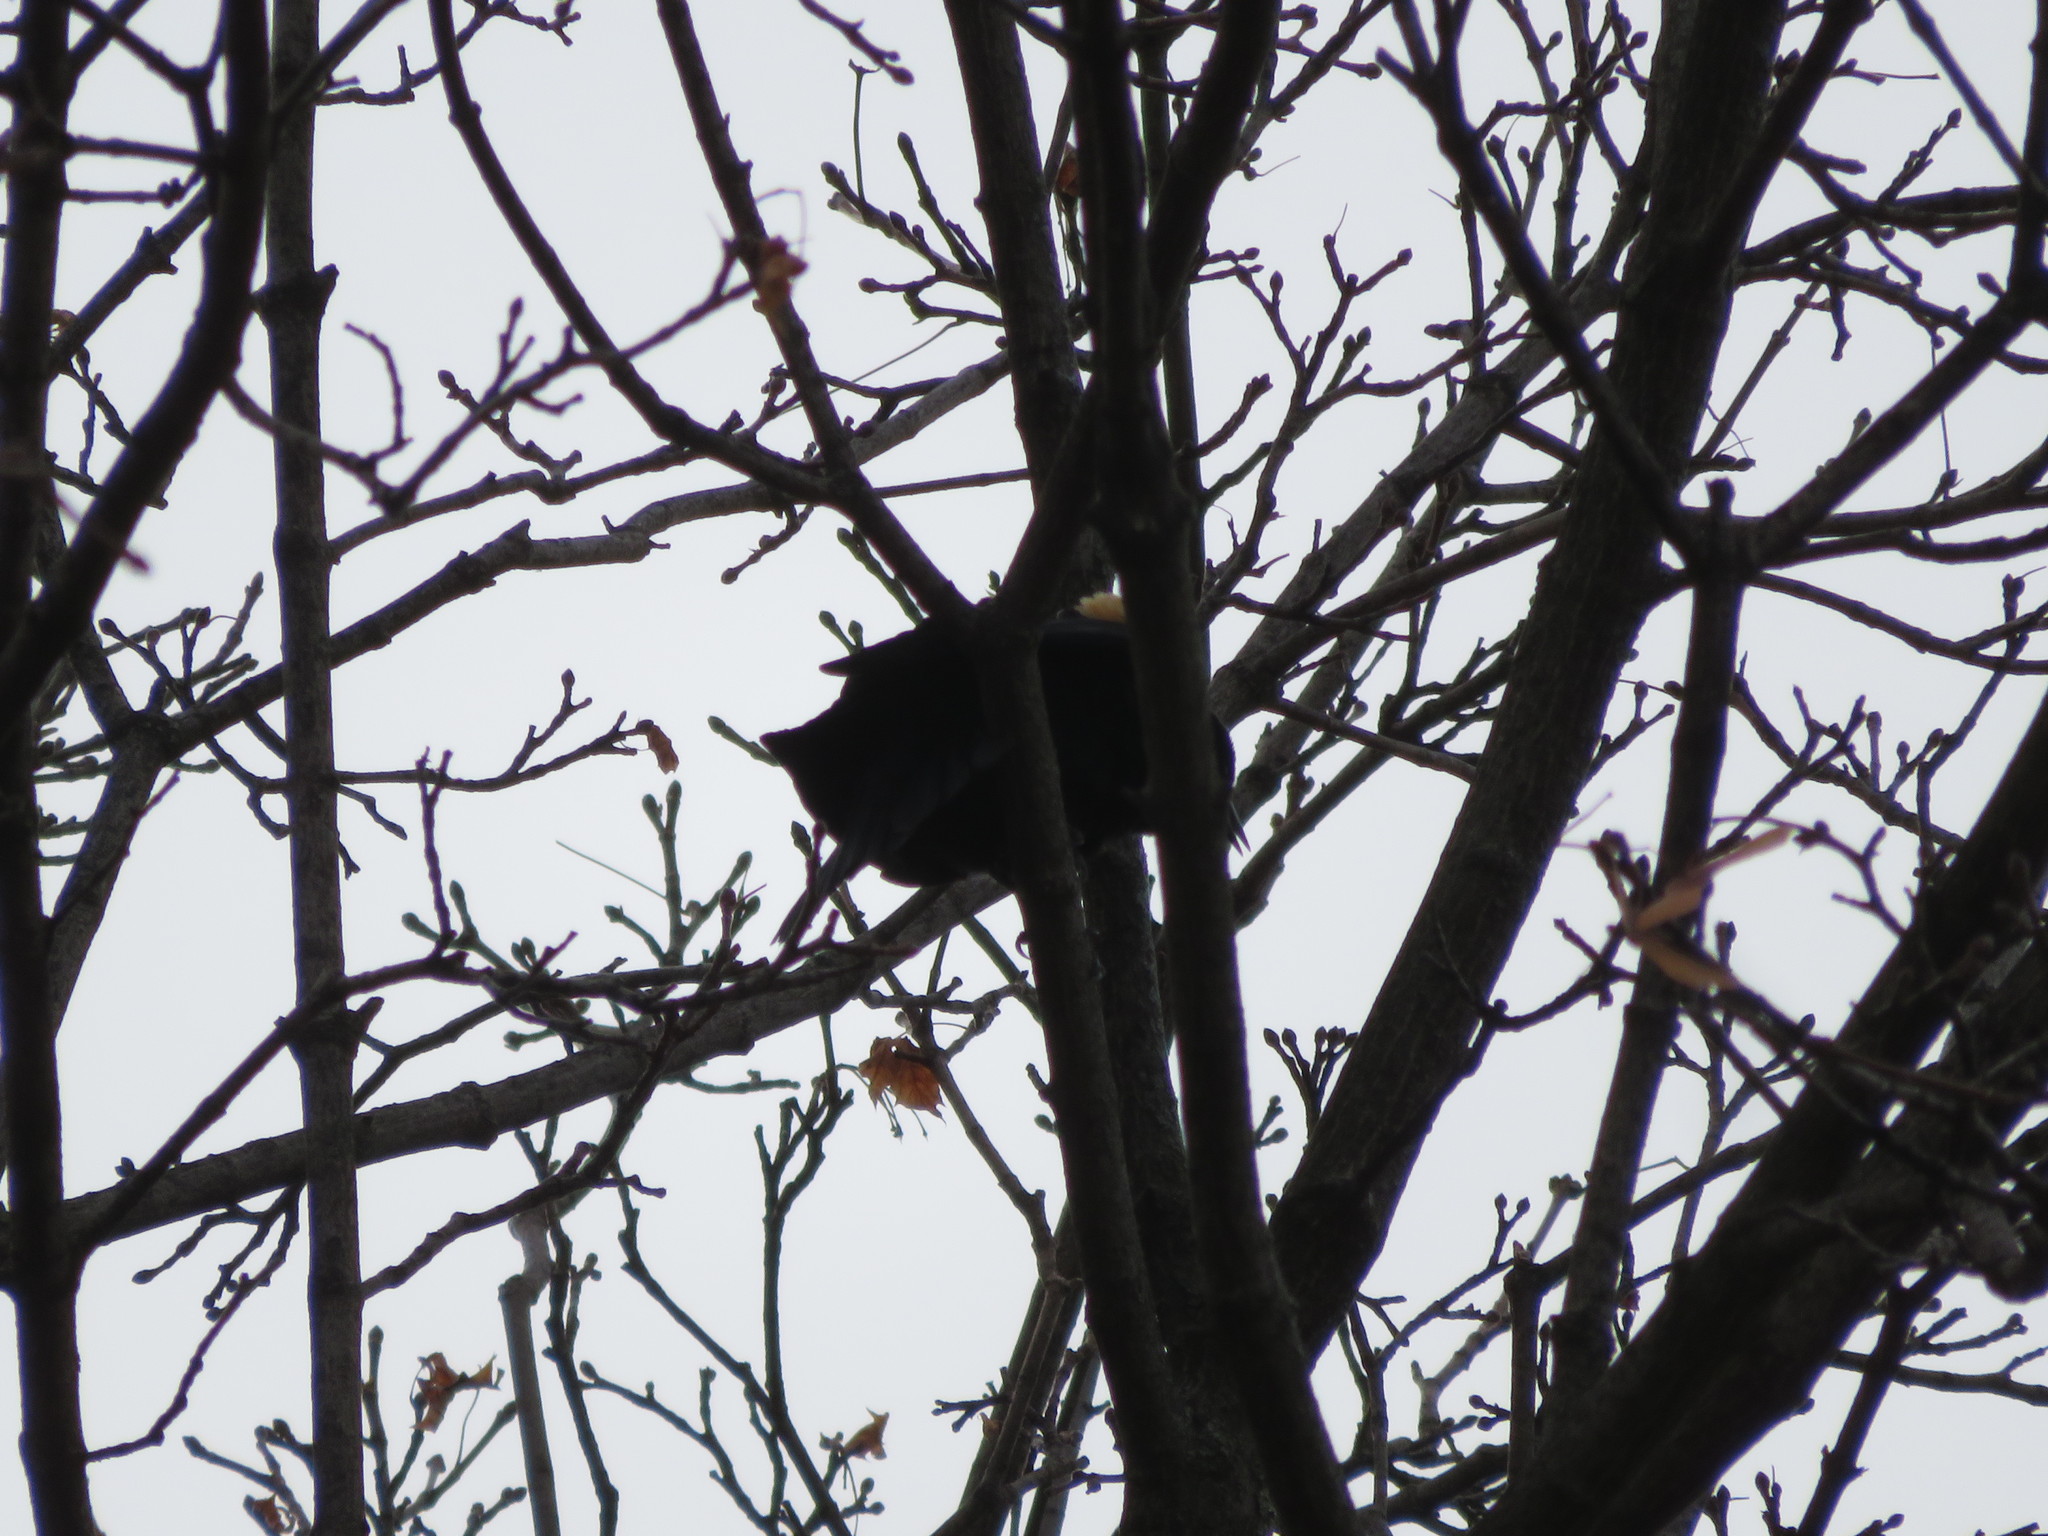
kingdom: Animalia
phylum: Chordata
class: Aves
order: Passeriformes
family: Icteridae
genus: Agelaius
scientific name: Agelaius phoeniceus
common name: Red-winged blackbird
